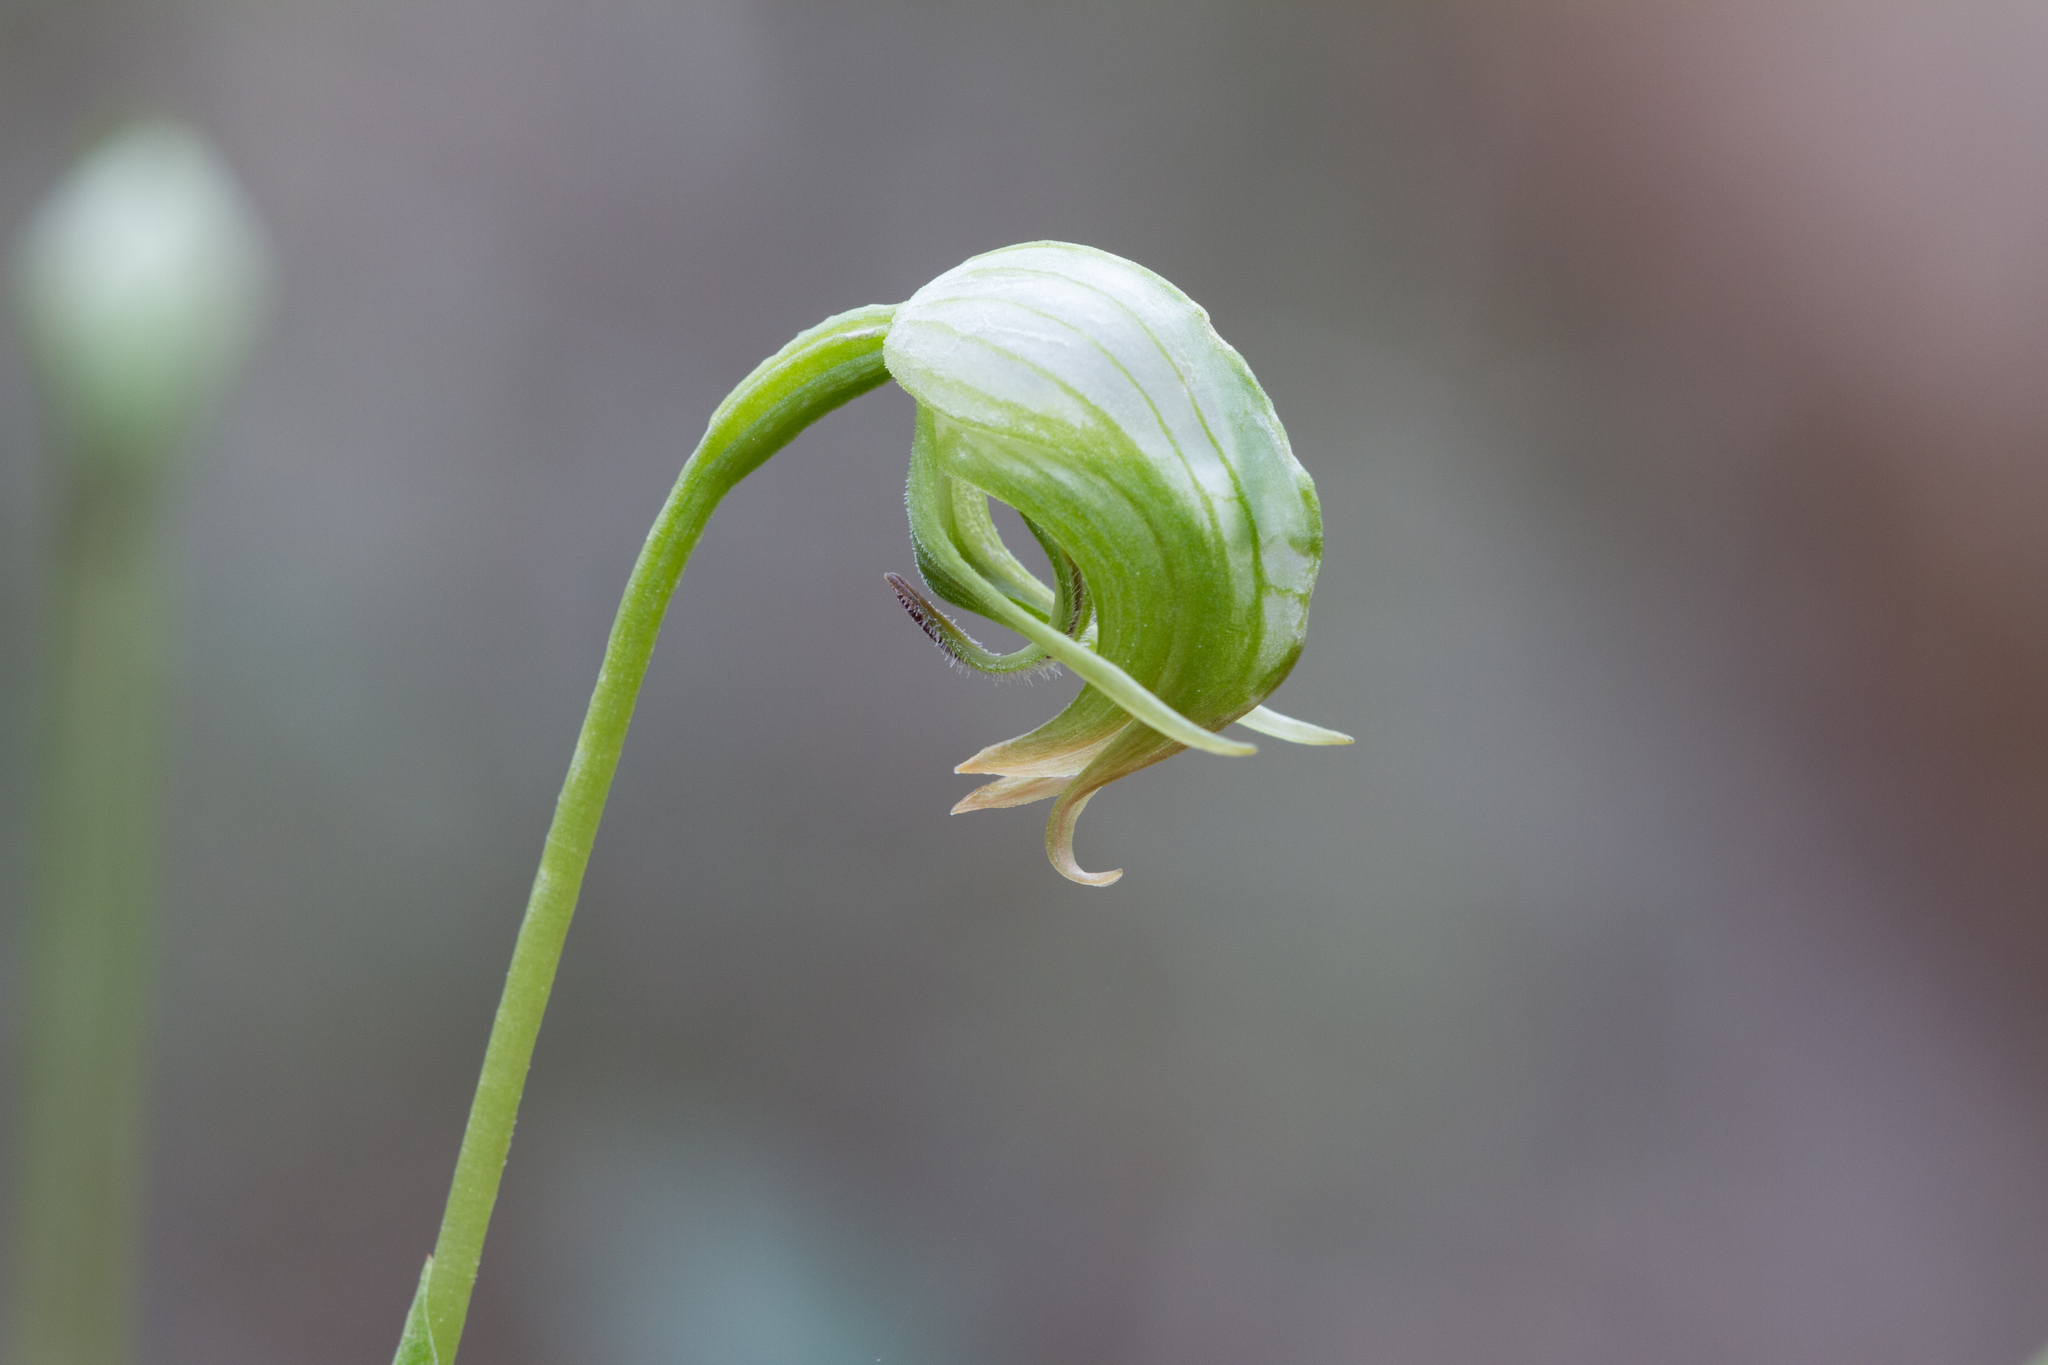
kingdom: Plantae
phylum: Tracheophyta
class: Liliopsida
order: Asparagales
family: Orchidaceae
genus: Pterostylis
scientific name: Pterostylis nutans
